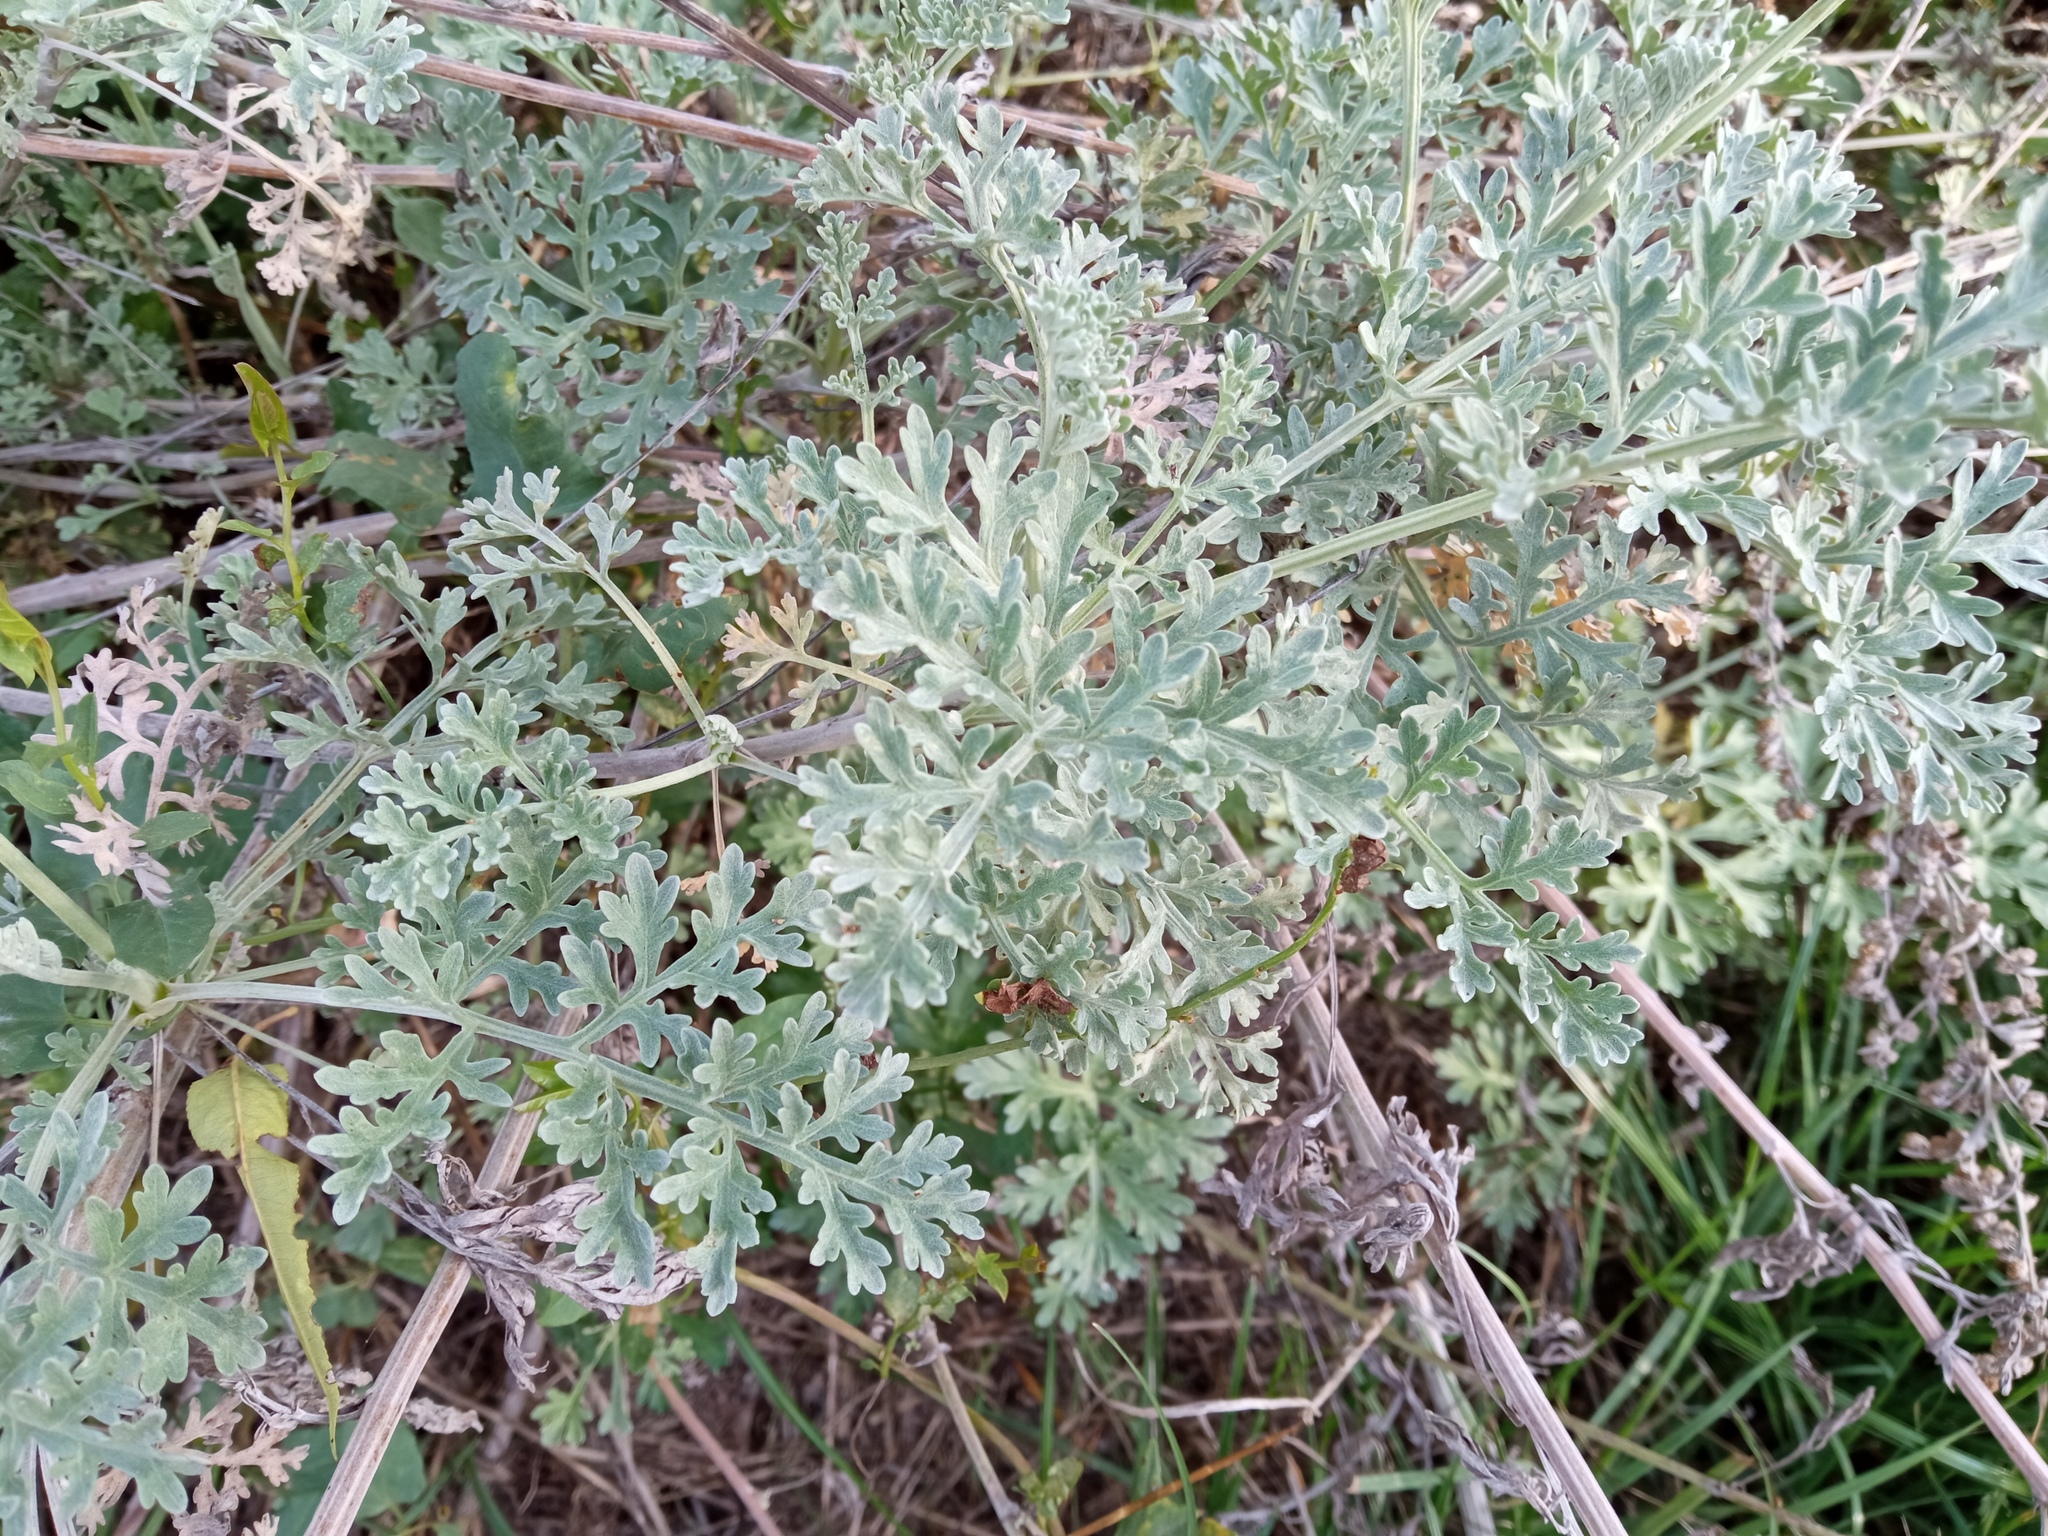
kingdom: Plantae
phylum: Tracheophyta
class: Magnoliopsida
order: Asterales
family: Asteraceae
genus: Artemisia
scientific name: Artemisia absinthium
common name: Wormwood
